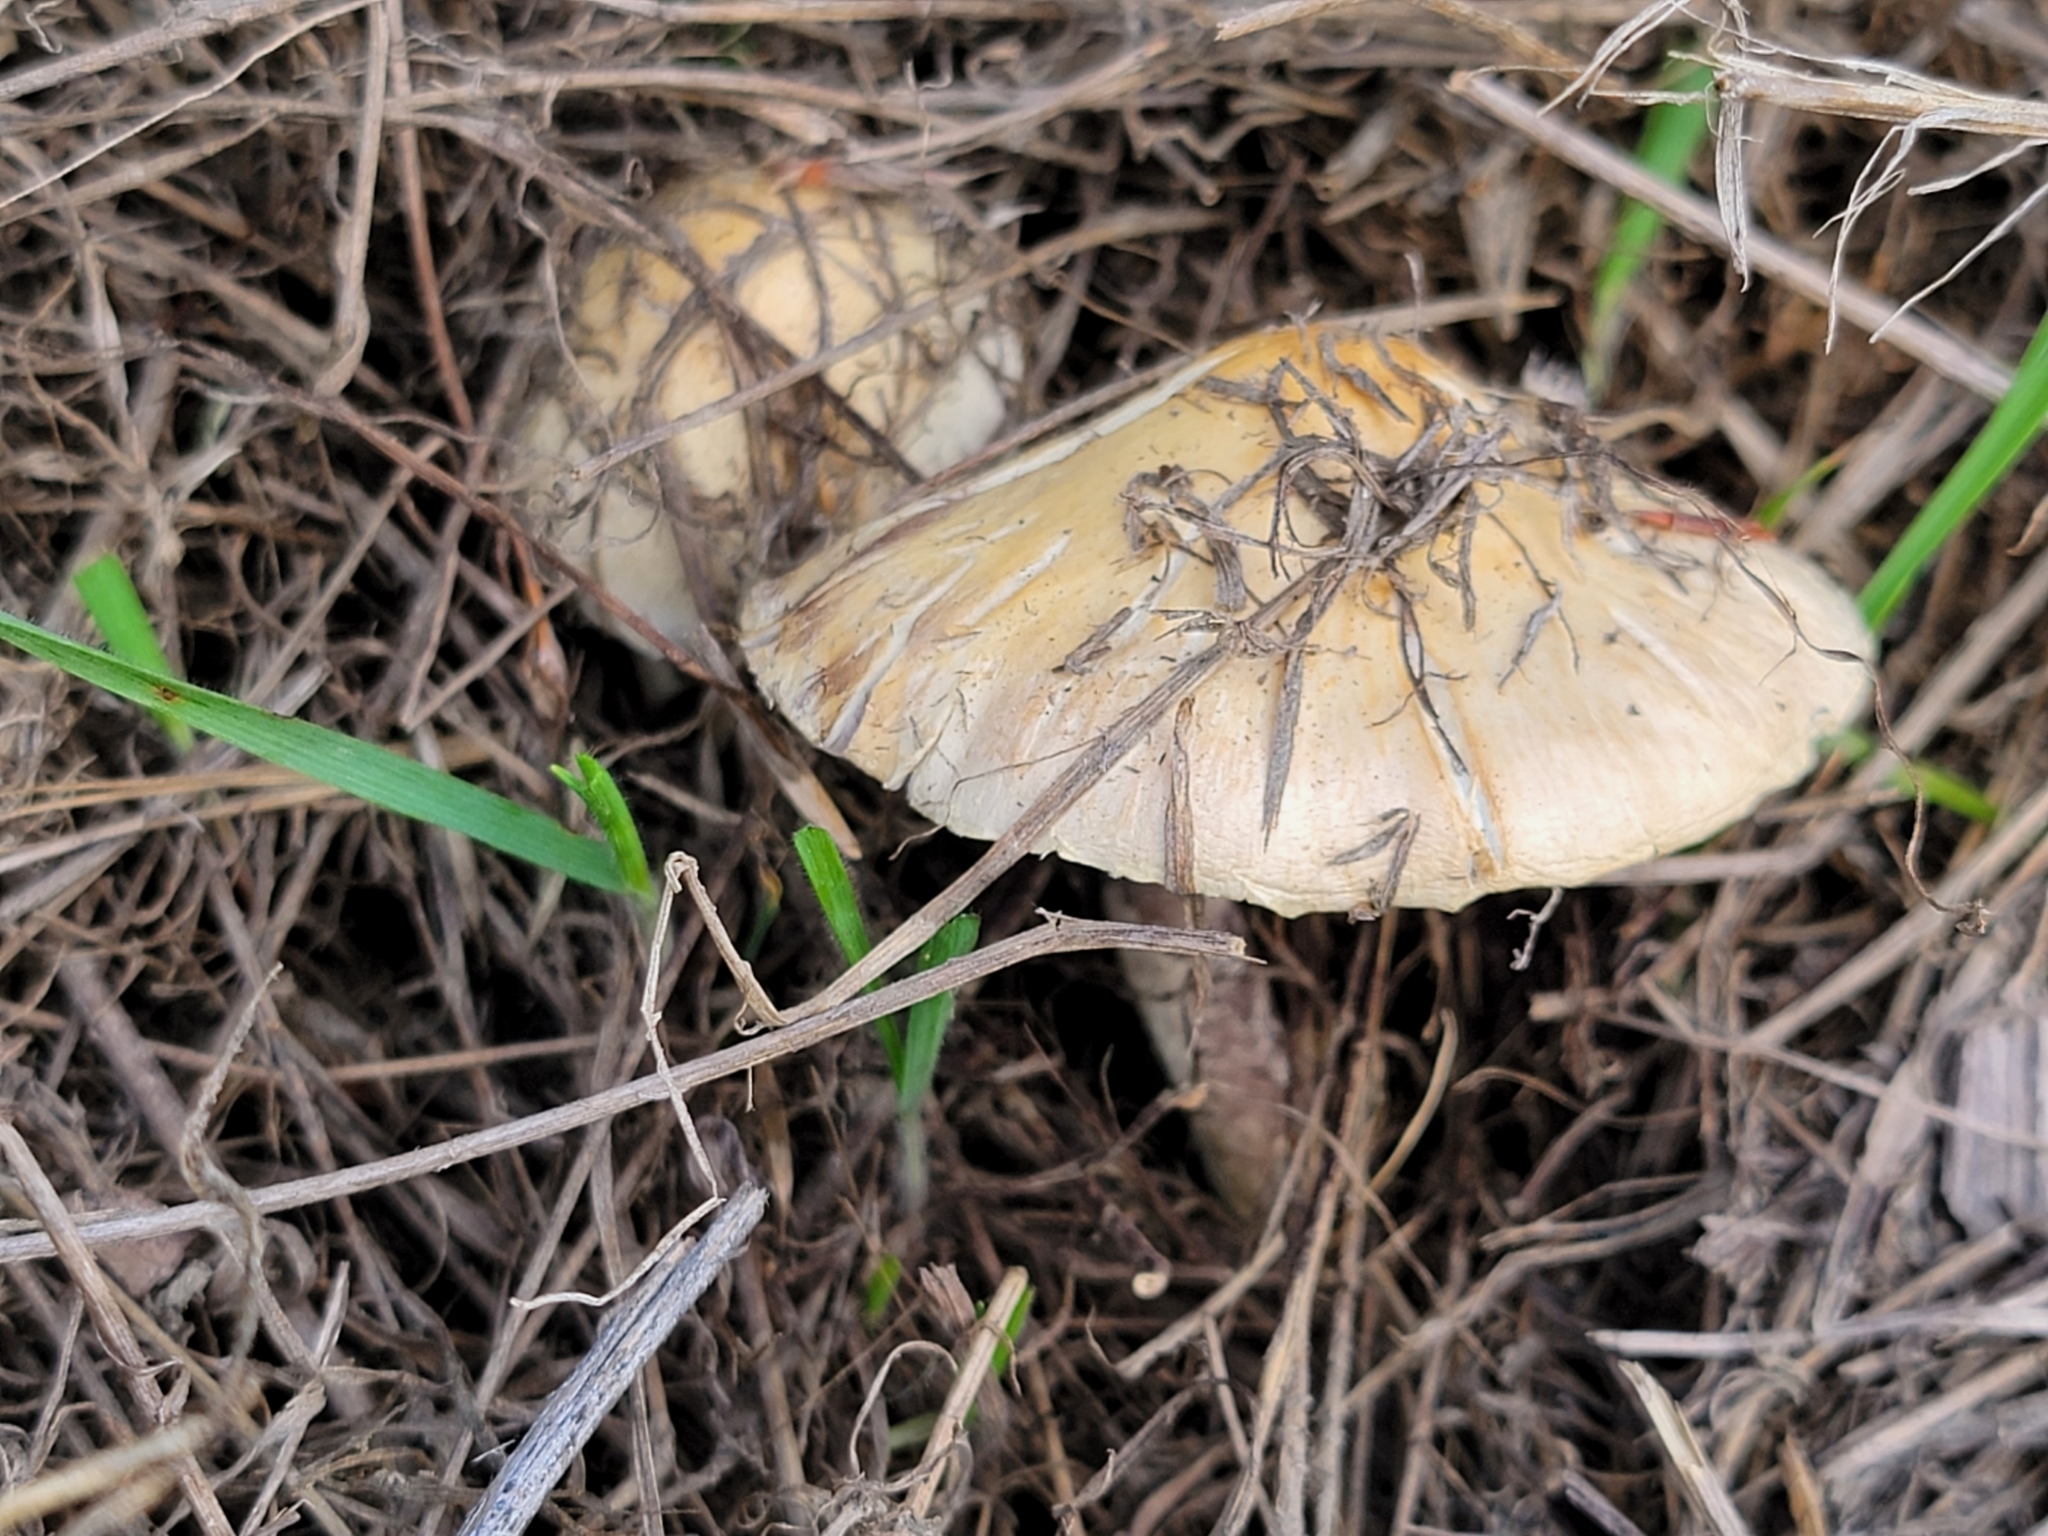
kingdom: Fungi
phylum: Basidiomycota
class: Agaricomycetes
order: Agaricales
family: Strophariaceae
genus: Leratiomyces
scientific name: Leratiomyces percevalii
